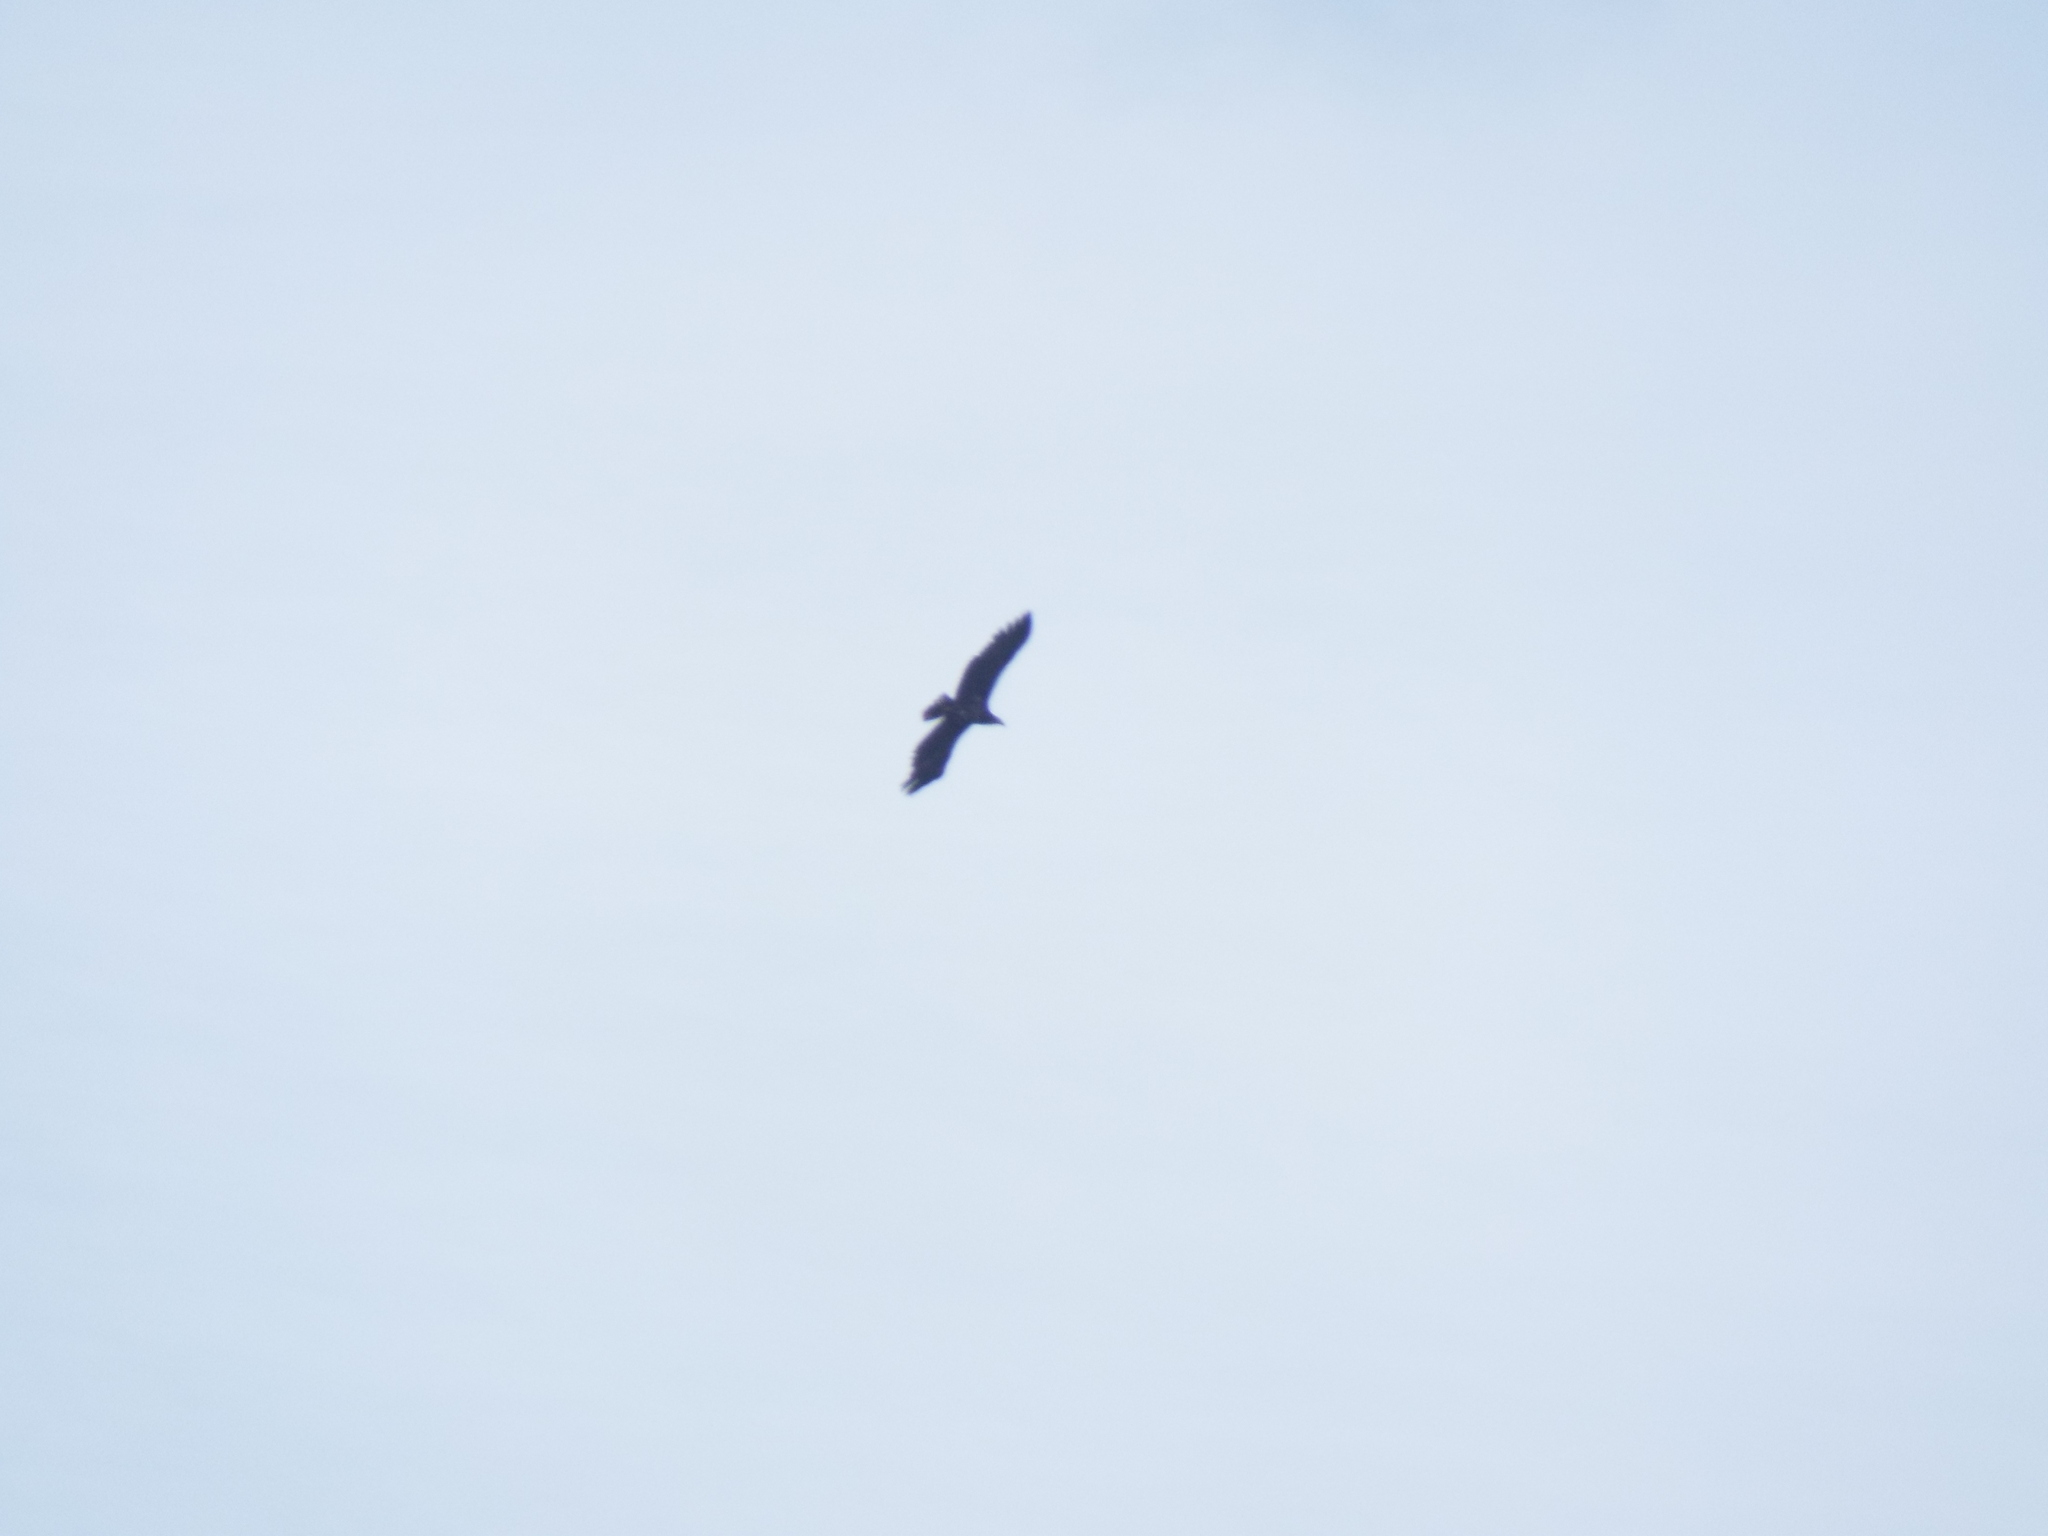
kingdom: Animalia
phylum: Chordata
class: Aves
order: Accipitriformes
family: Accipitridae
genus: Haliaeetus
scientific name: Haliaeetus albicilla
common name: White-tailed eagle
